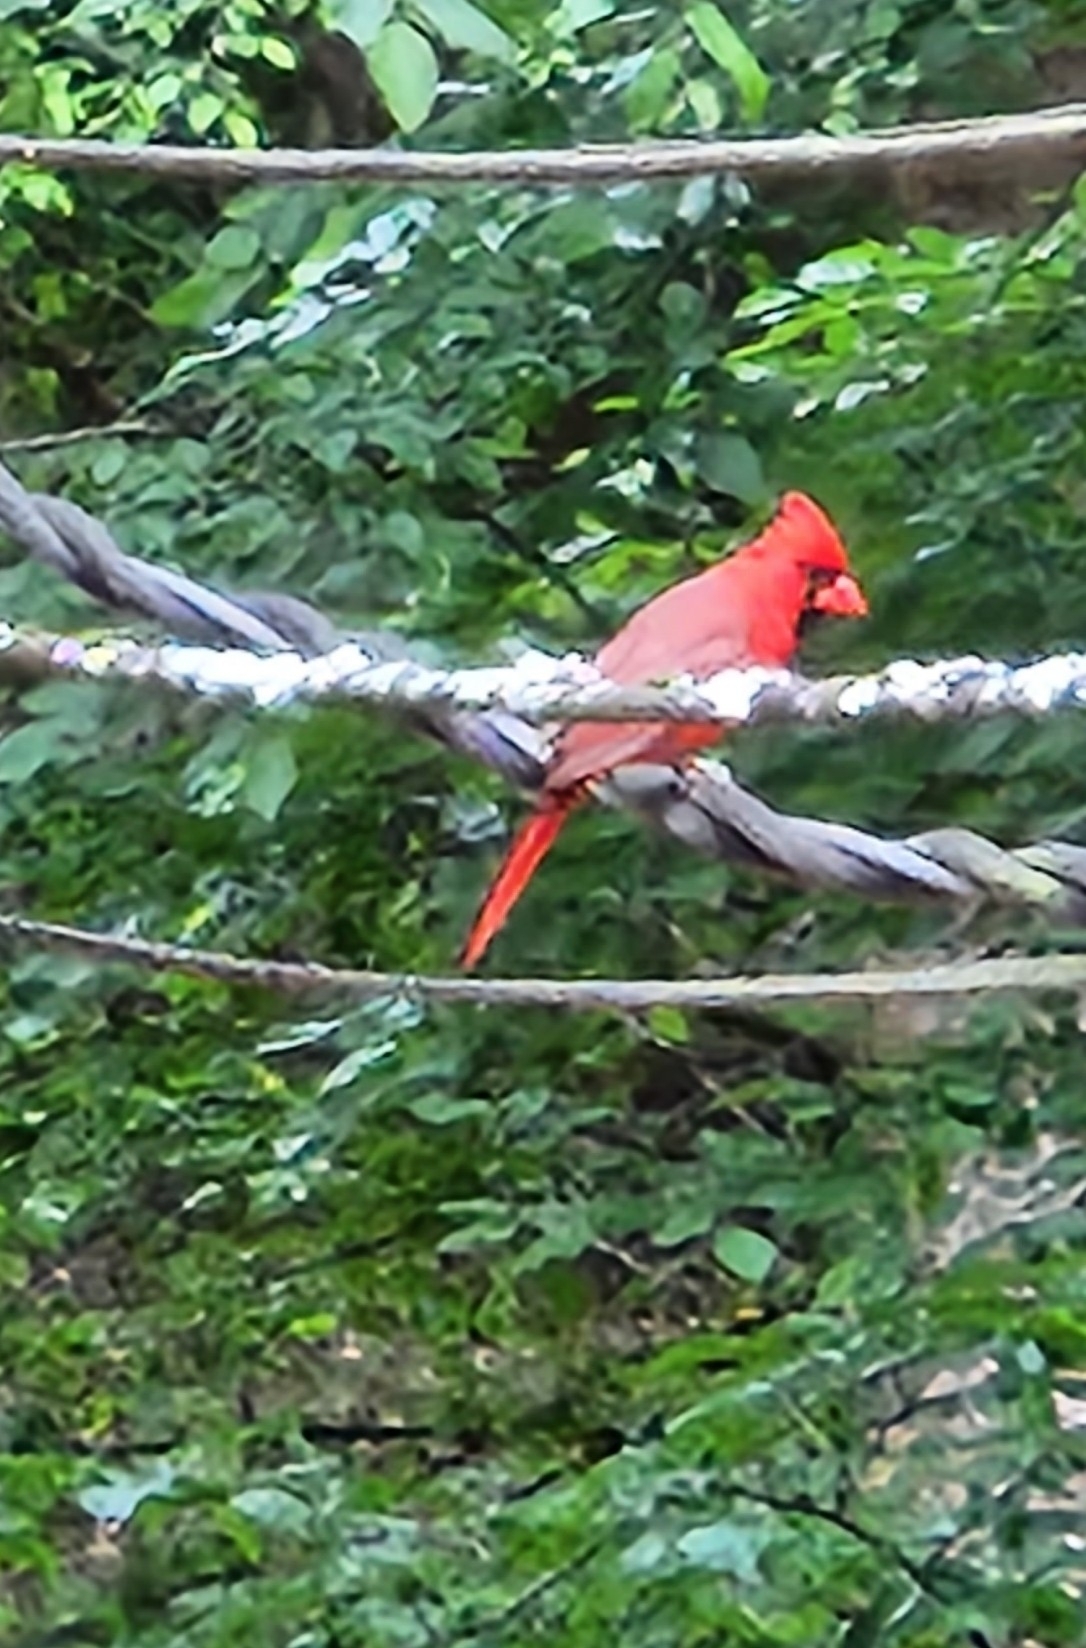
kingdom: Animalia
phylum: Chordata
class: Aves
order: Passeriformes
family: Cardinalidae
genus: Cardinalis
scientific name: Cardinalis cardinalis
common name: Northern cardinal
